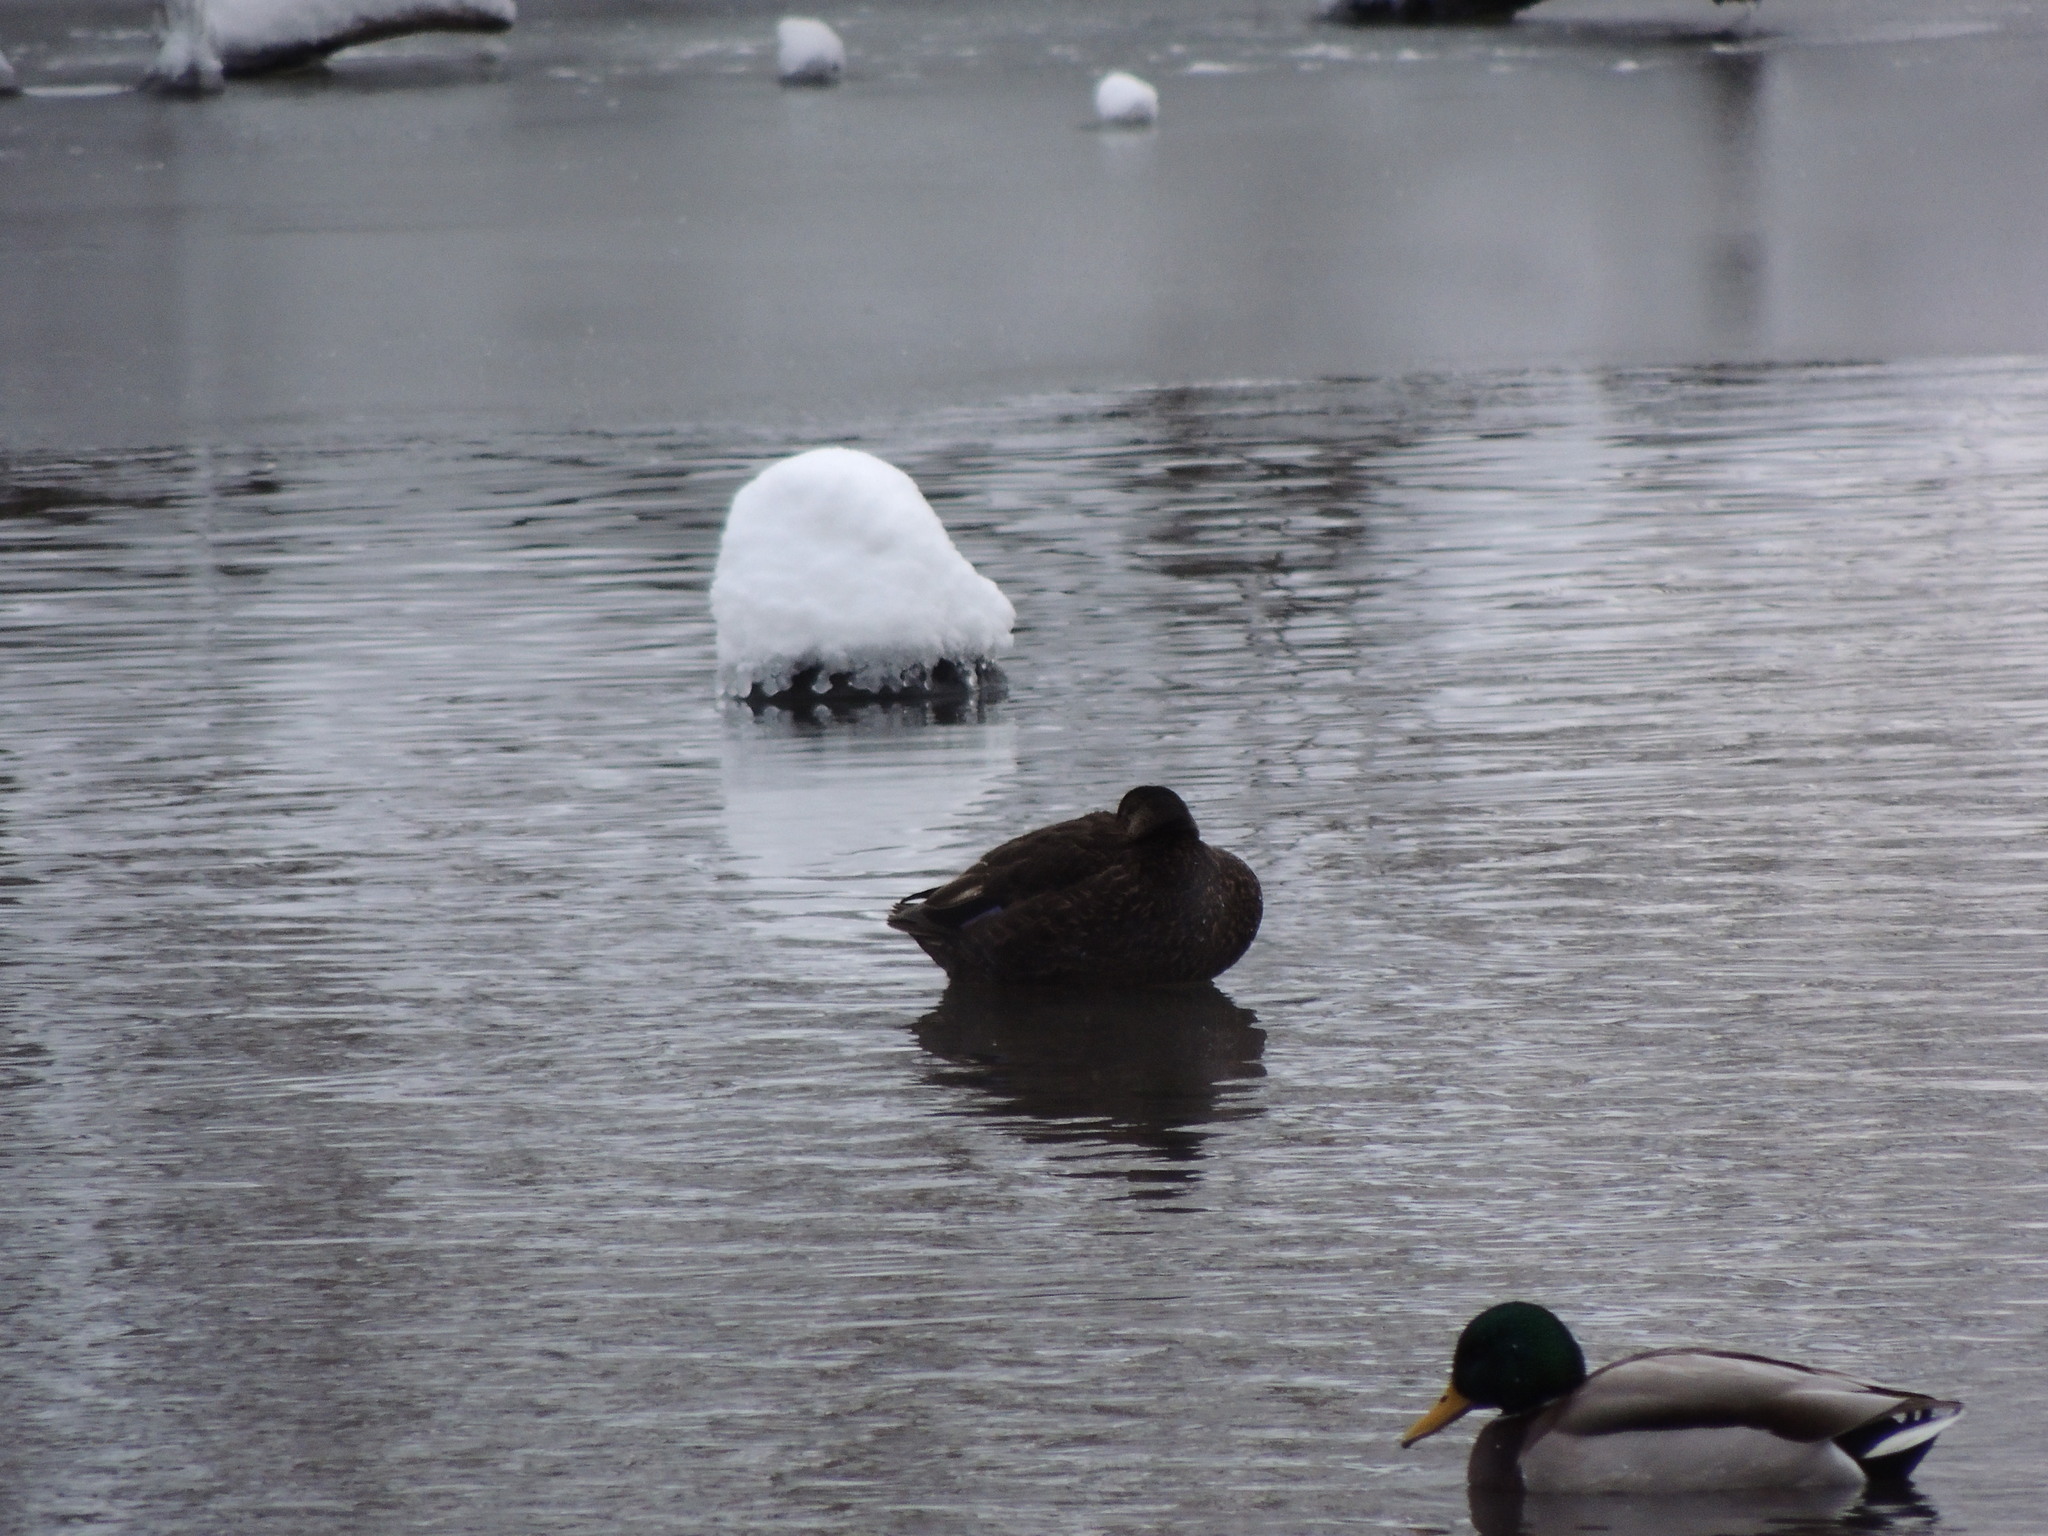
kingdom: Animalia
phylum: Chordata
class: Aves
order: Anseriformes
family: Anatidae
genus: Anas
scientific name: Anas platyrhynchos
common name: Mallard
